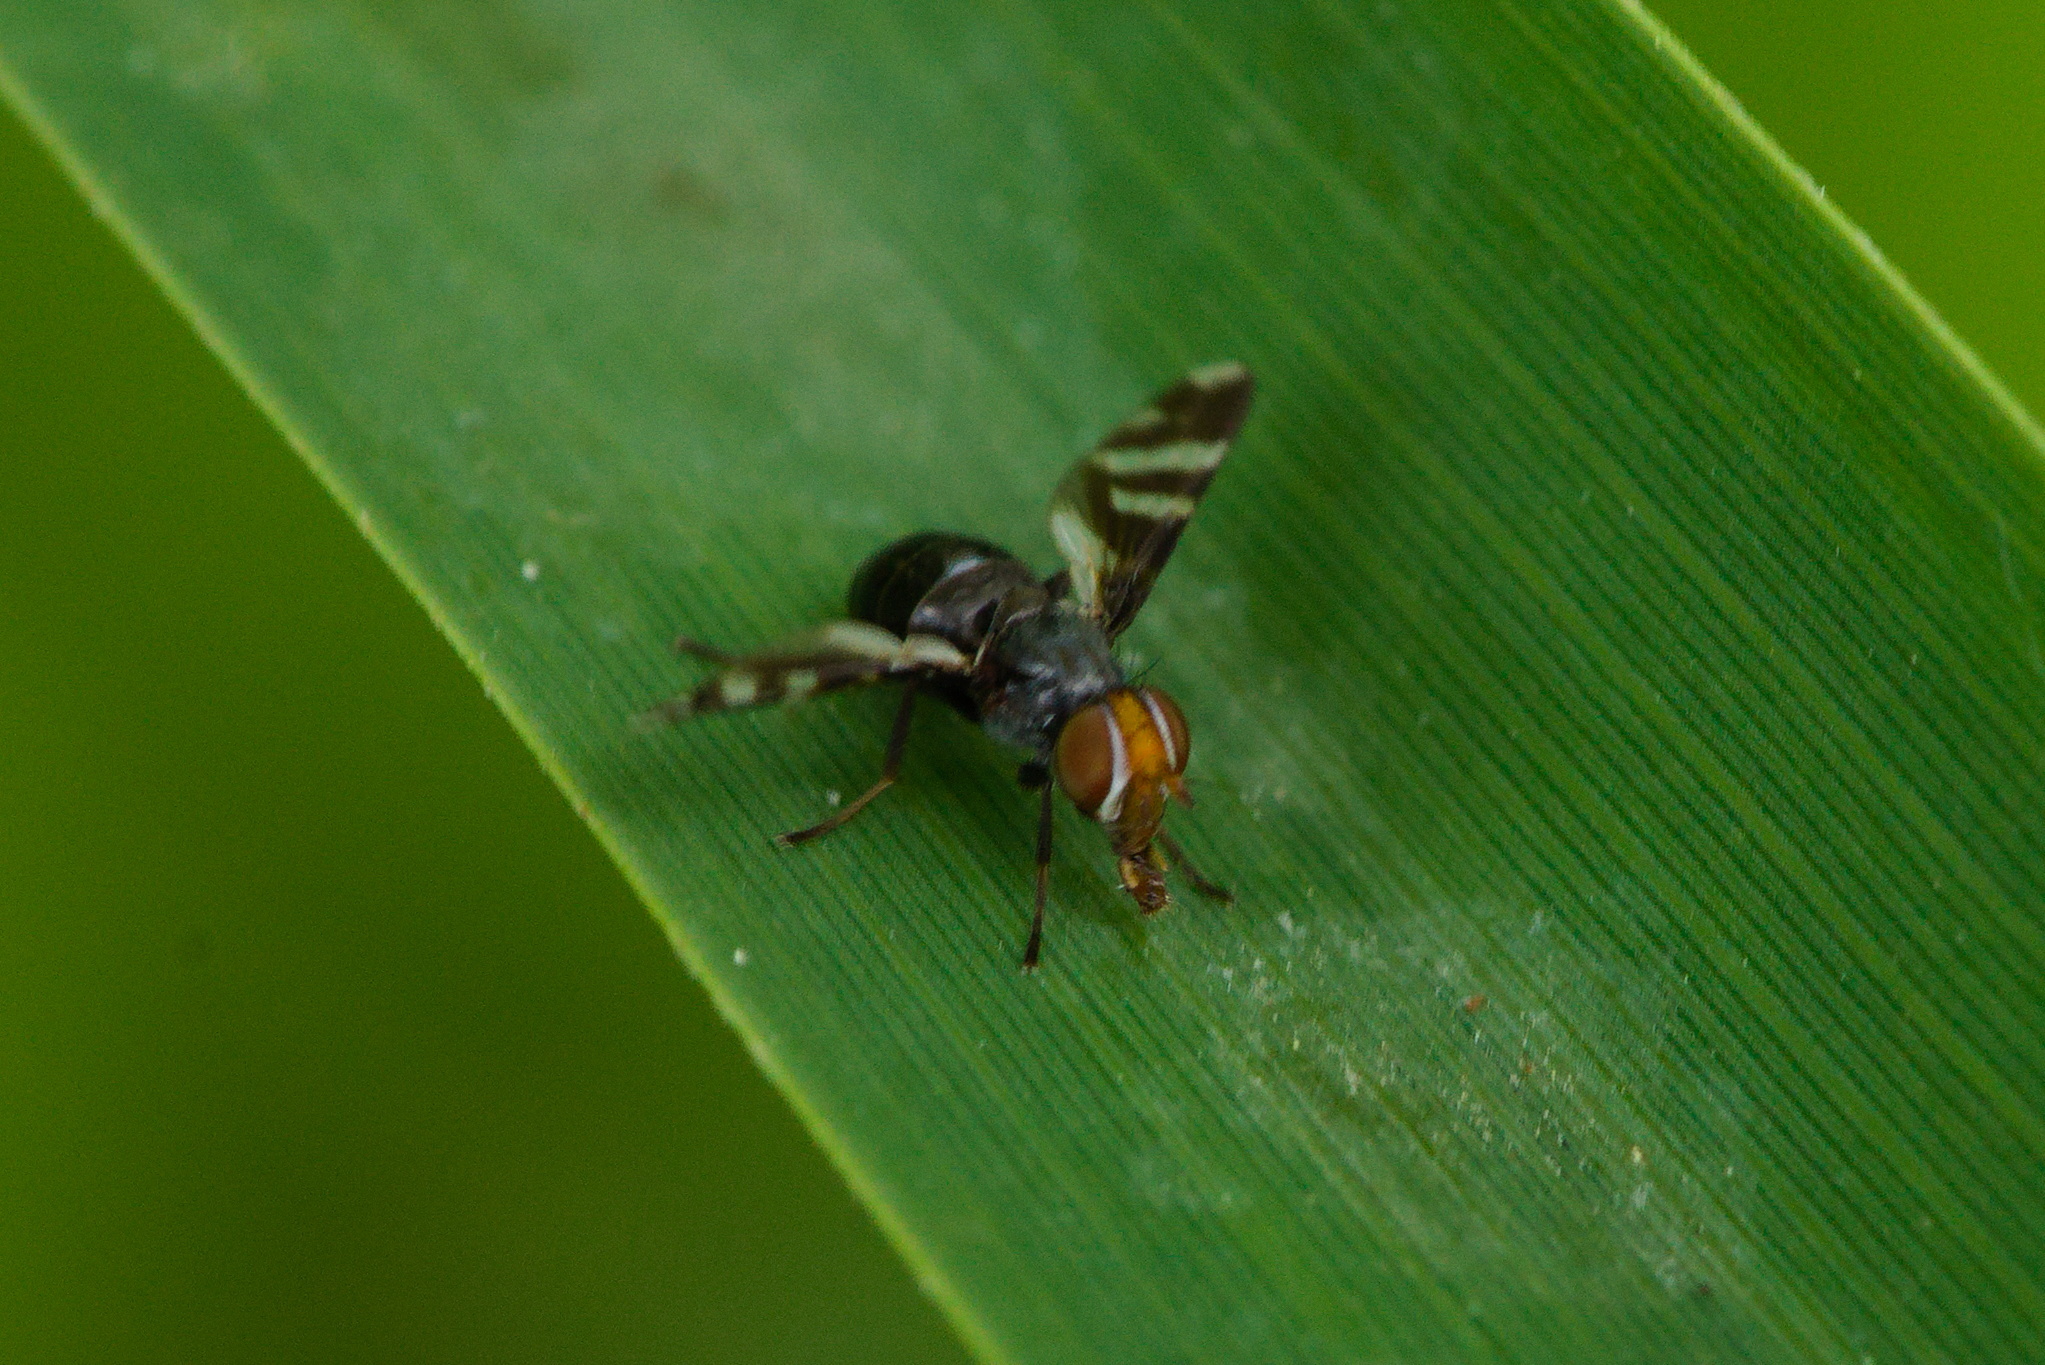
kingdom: Animalia
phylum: Arthropoda
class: Insecta
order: Diptera
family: Ulidiidae
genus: Herina
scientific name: Herina frondescentiae
